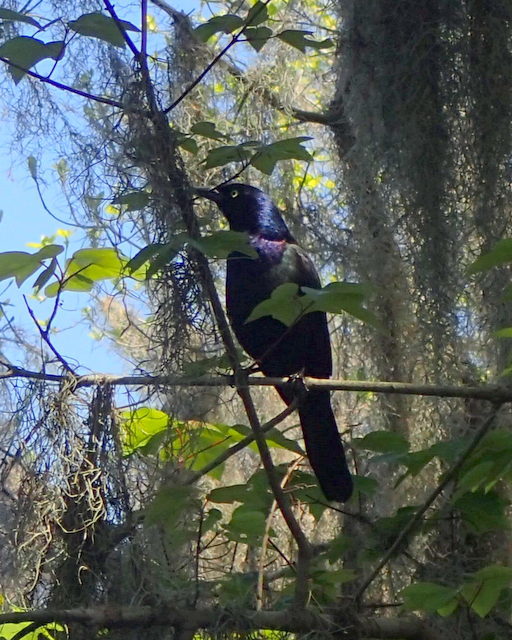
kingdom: Animalia
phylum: Chordata
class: Aves
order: Passeriformes
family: Icteridae
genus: Quiscalus
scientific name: Quiscalus quiscula
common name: Common grackle
